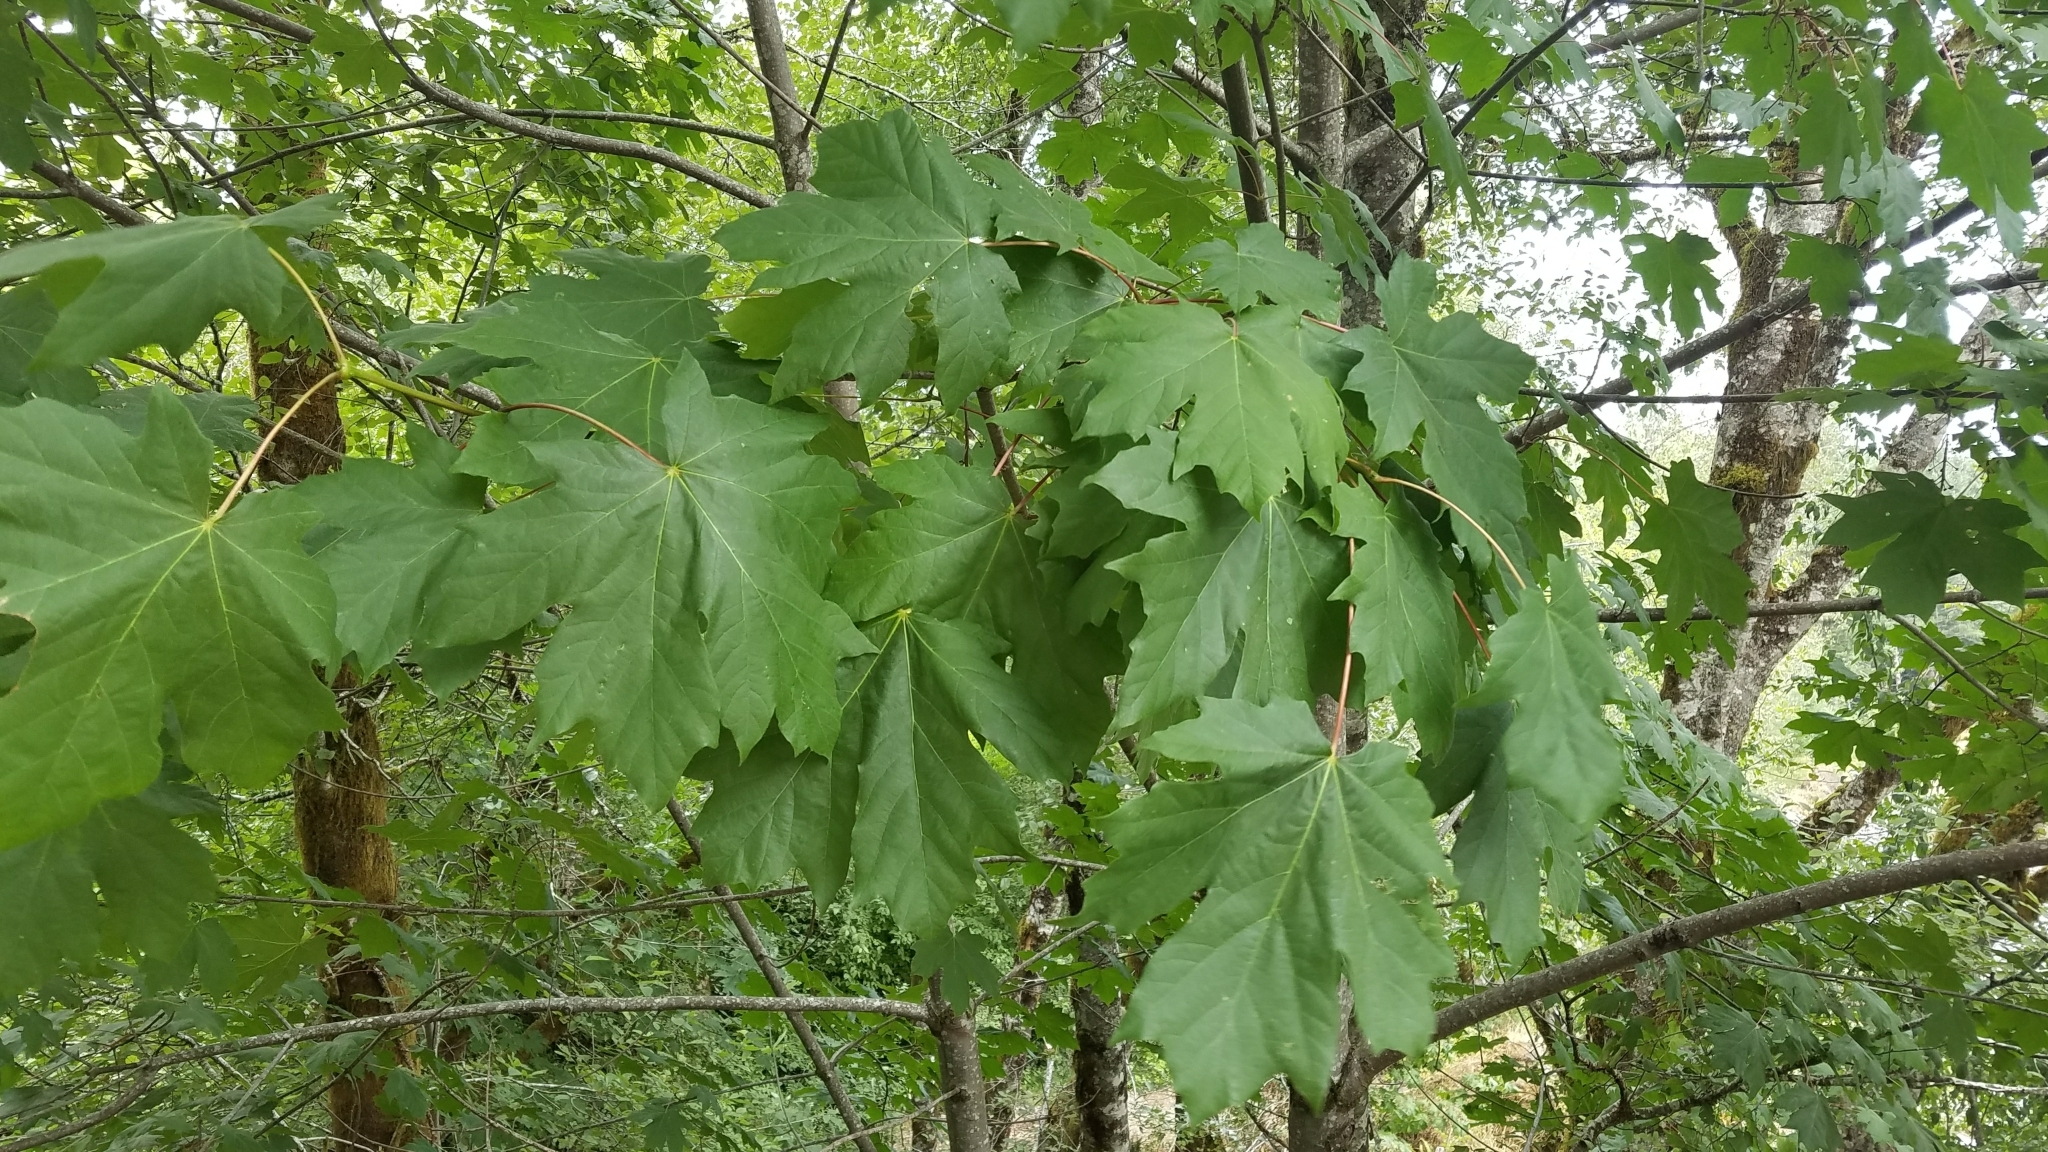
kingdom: Plantae
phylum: Tracheophyta
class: Magnoliopsida
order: Sapindales
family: Sapindaceae
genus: Acer
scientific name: Acer macrophyllum
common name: Oregon maple
